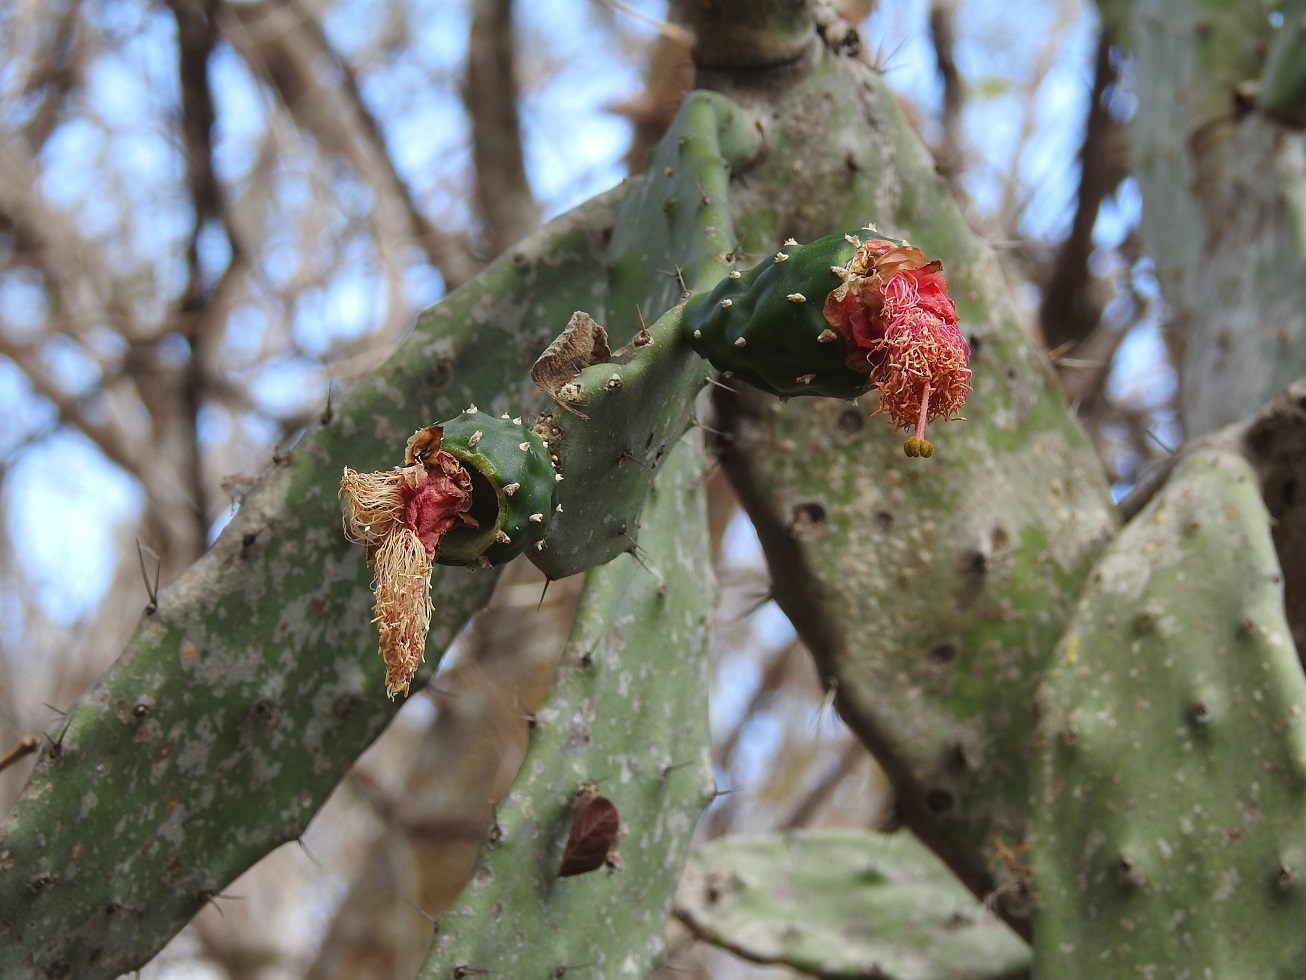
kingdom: Plantae
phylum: Tracheophyta
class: Magnoliopsida
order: Caryophyllales
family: Cactaceae
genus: Opuntia
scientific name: Opuntia dejecta
